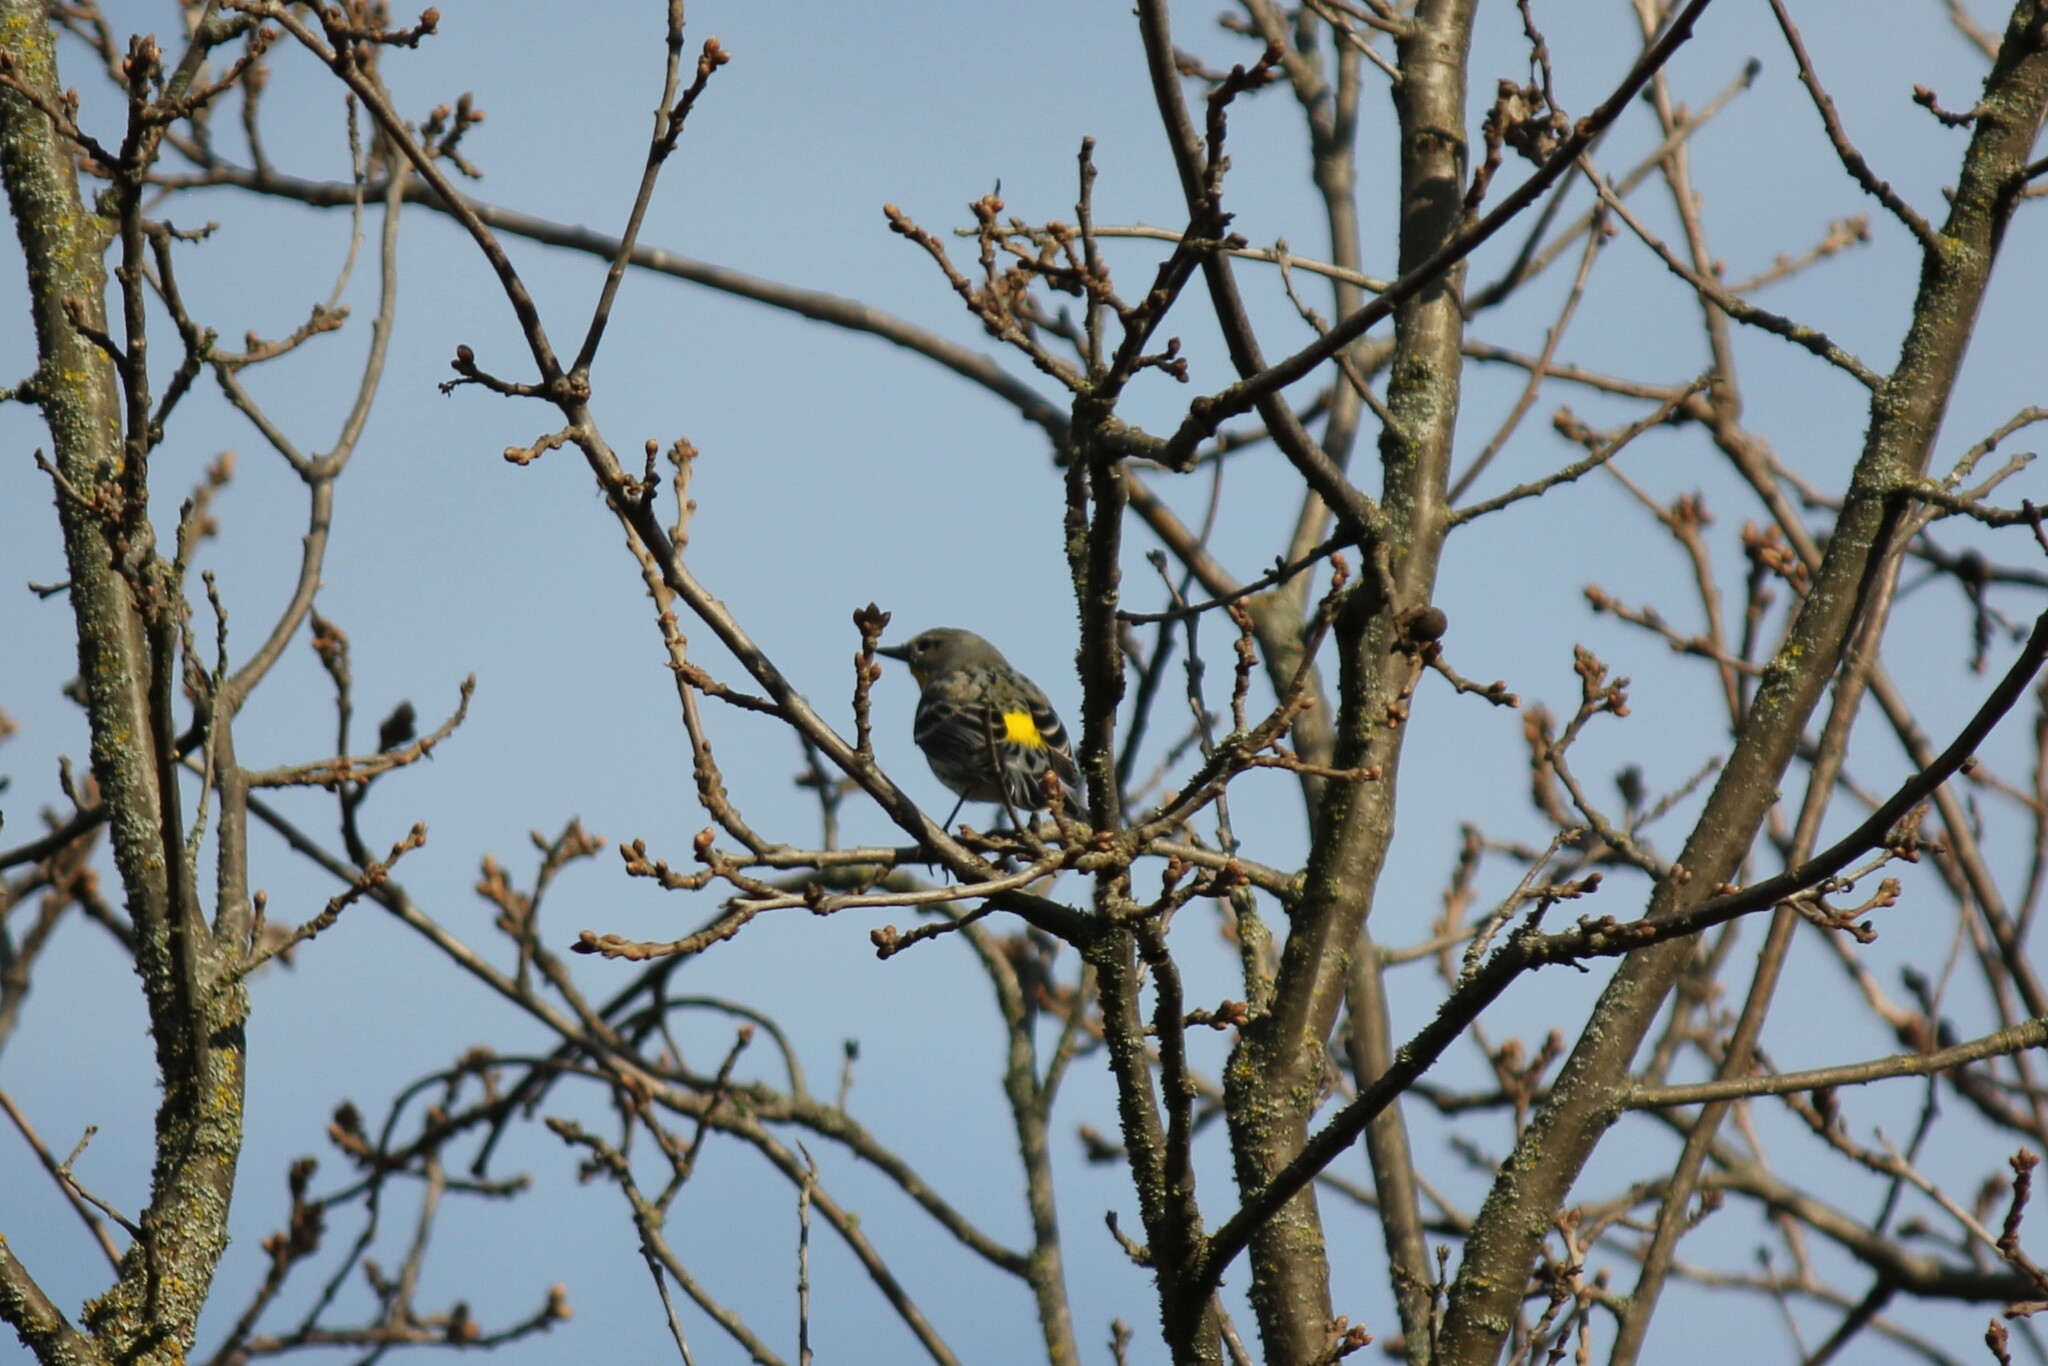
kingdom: Animalia
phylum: Chordata
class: Aves
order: Passeriformes
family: Parulidae
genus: Setophaga
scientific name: Setophaga coronata
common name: Myrtle warbler
